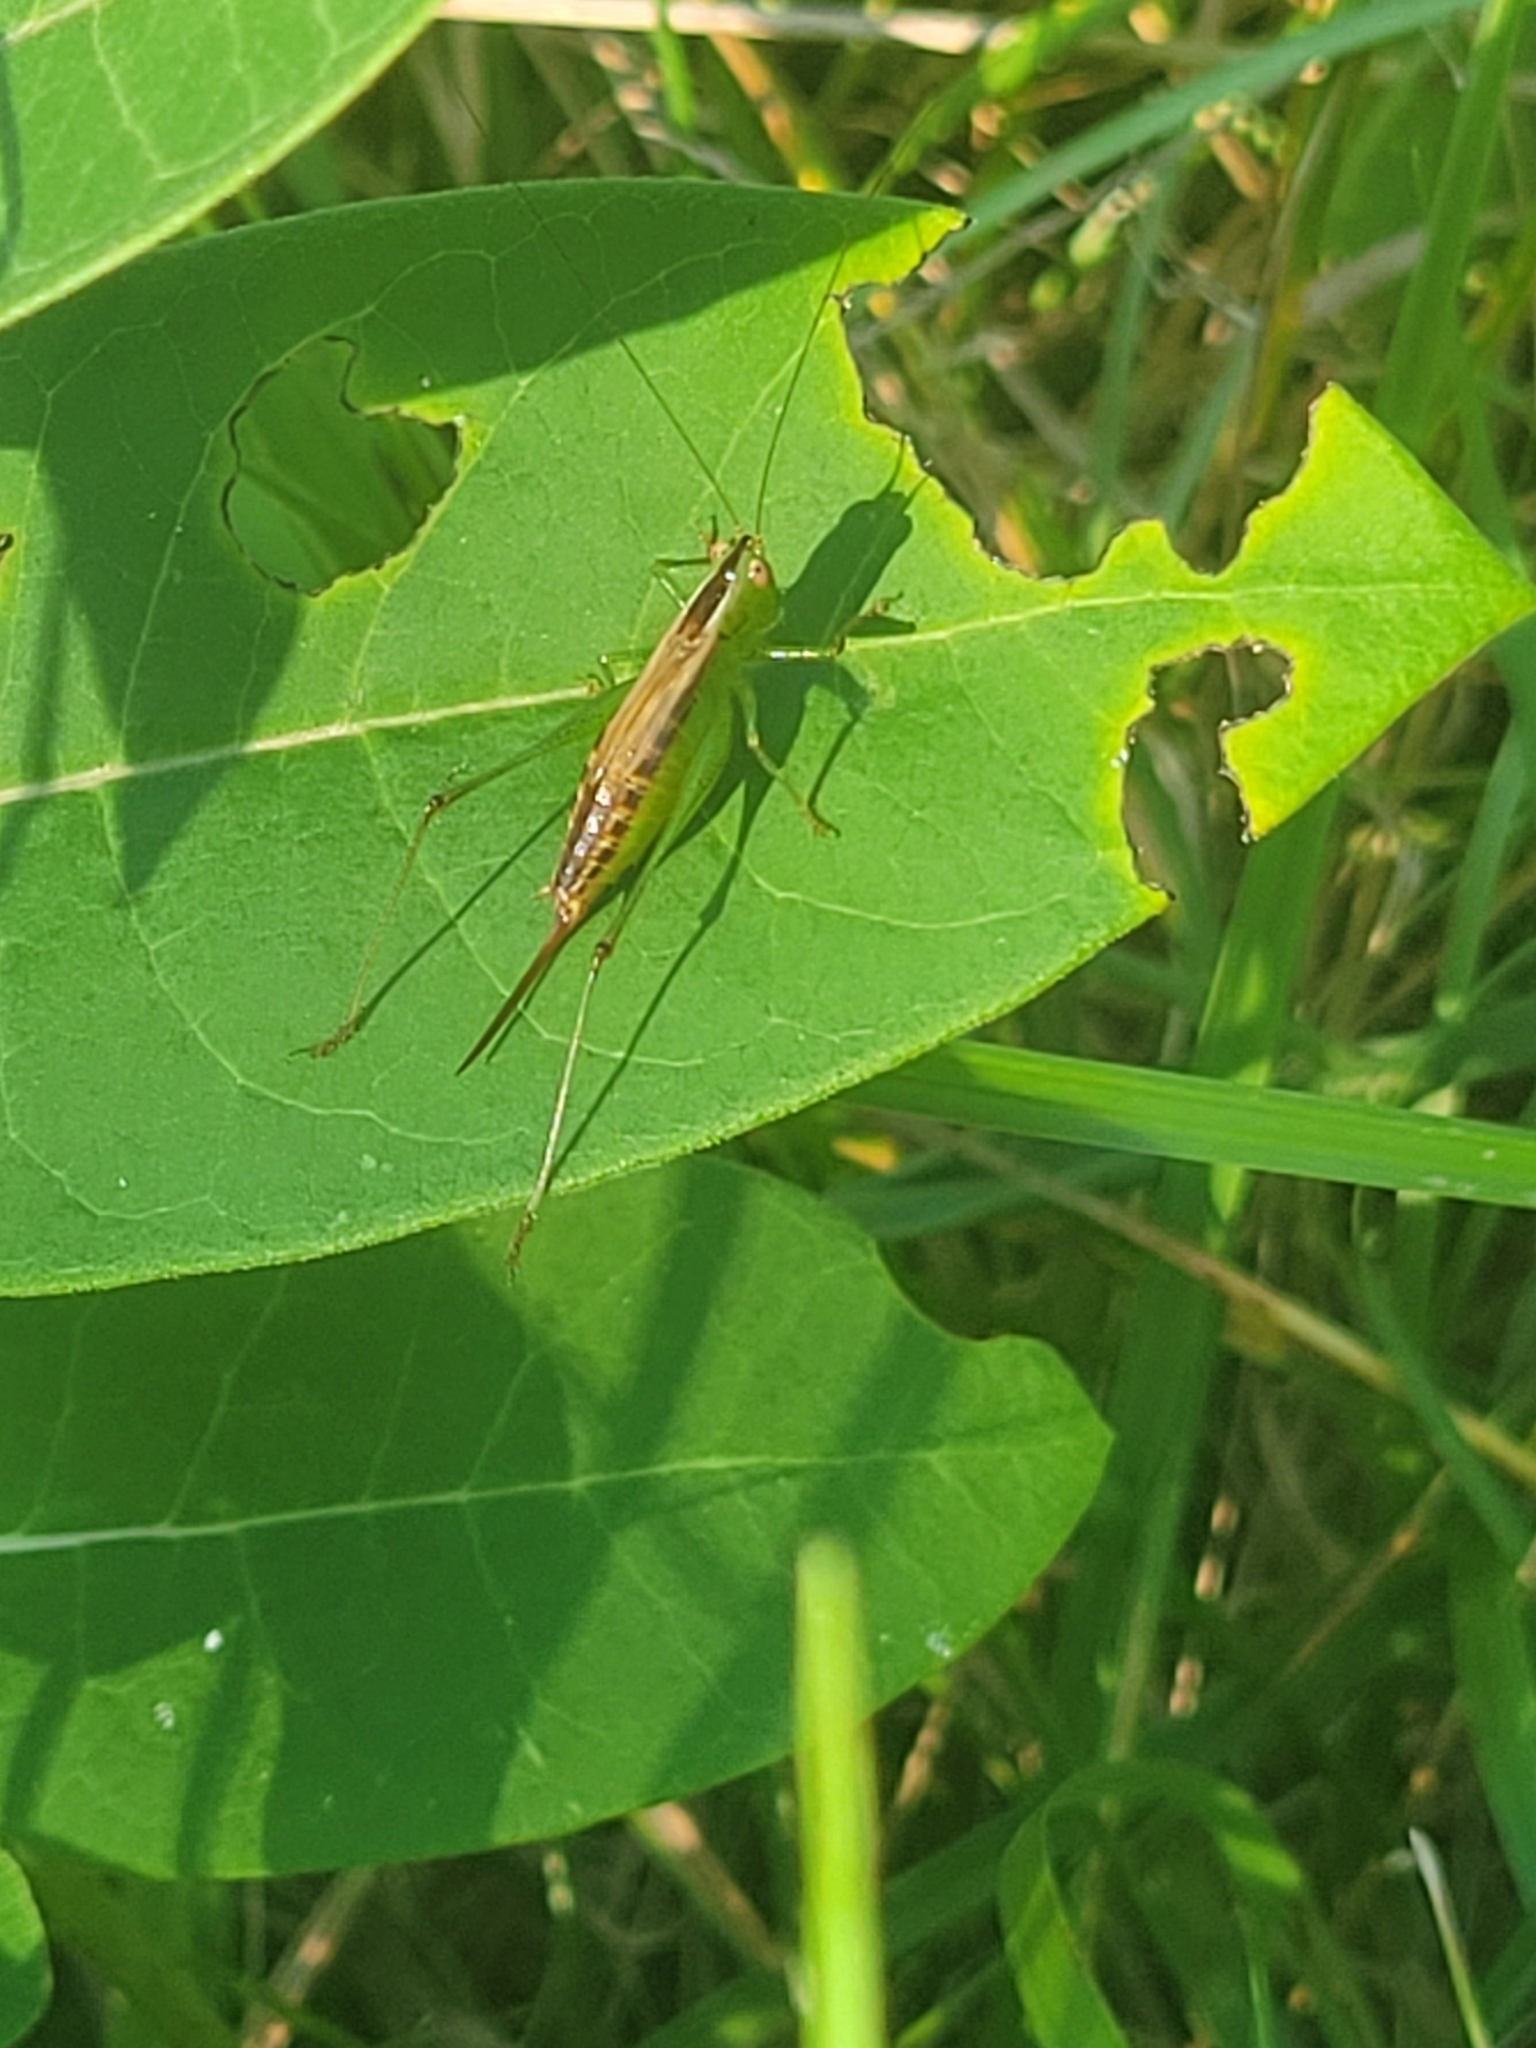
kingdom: Animalia
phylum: Arthropoda
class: Insecta
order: Orthoptera
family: Tettigoniidae
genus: Conocephalus
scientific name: Conocephalus brevipennis
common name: Short-winged meadow katydid
